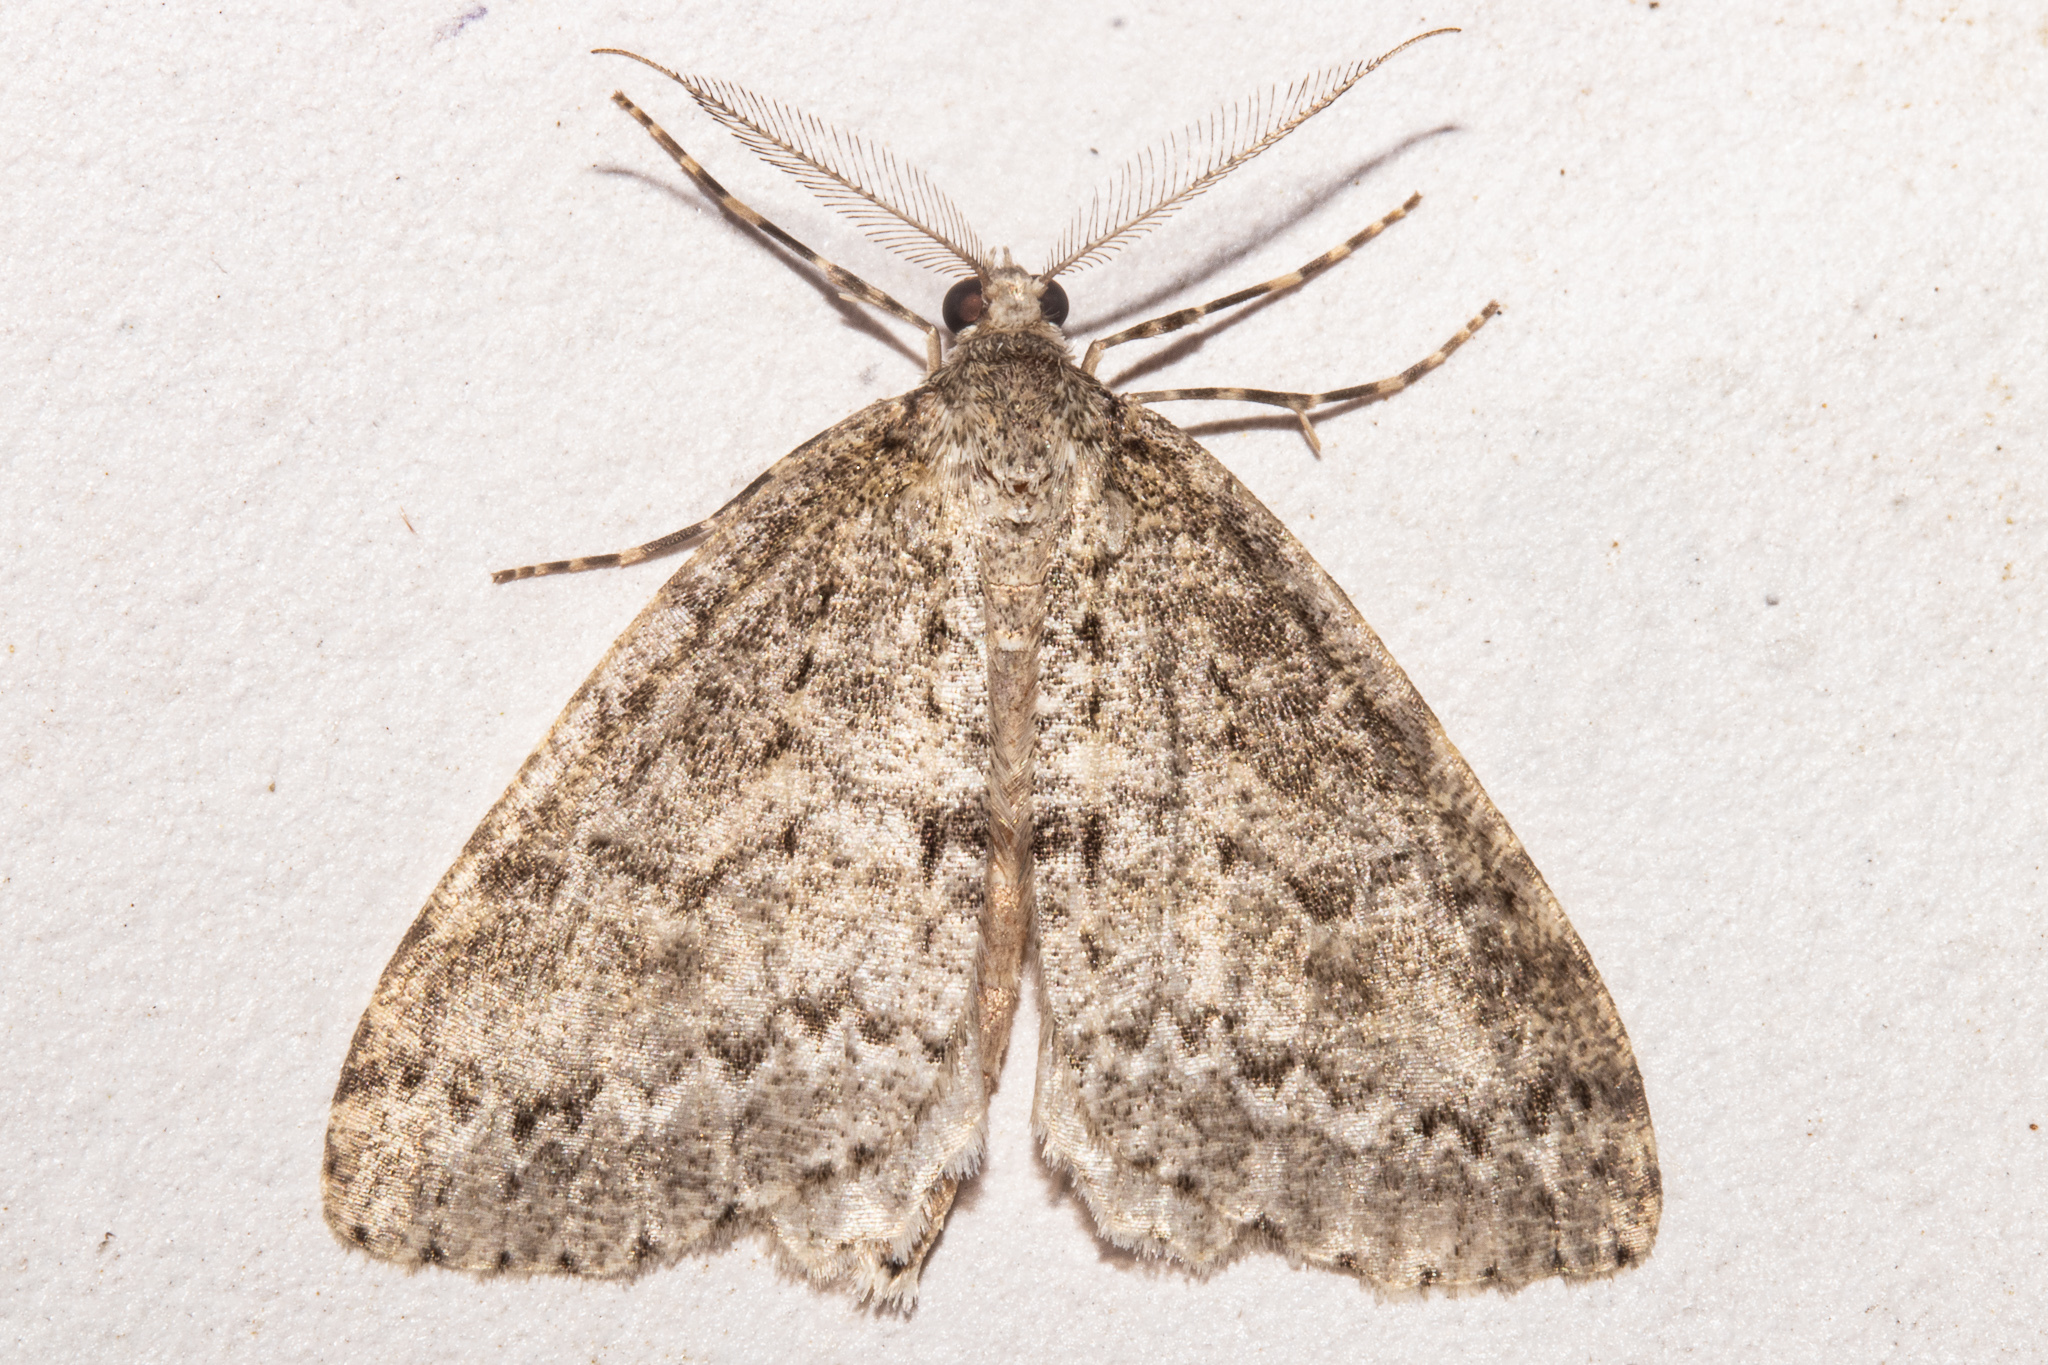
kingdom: Animalia
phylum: Arthropoda
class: Insecta
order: Lepidoptera
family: Geometridae
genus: Pseudocoremia
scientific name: Pseudocoremia fenerata
